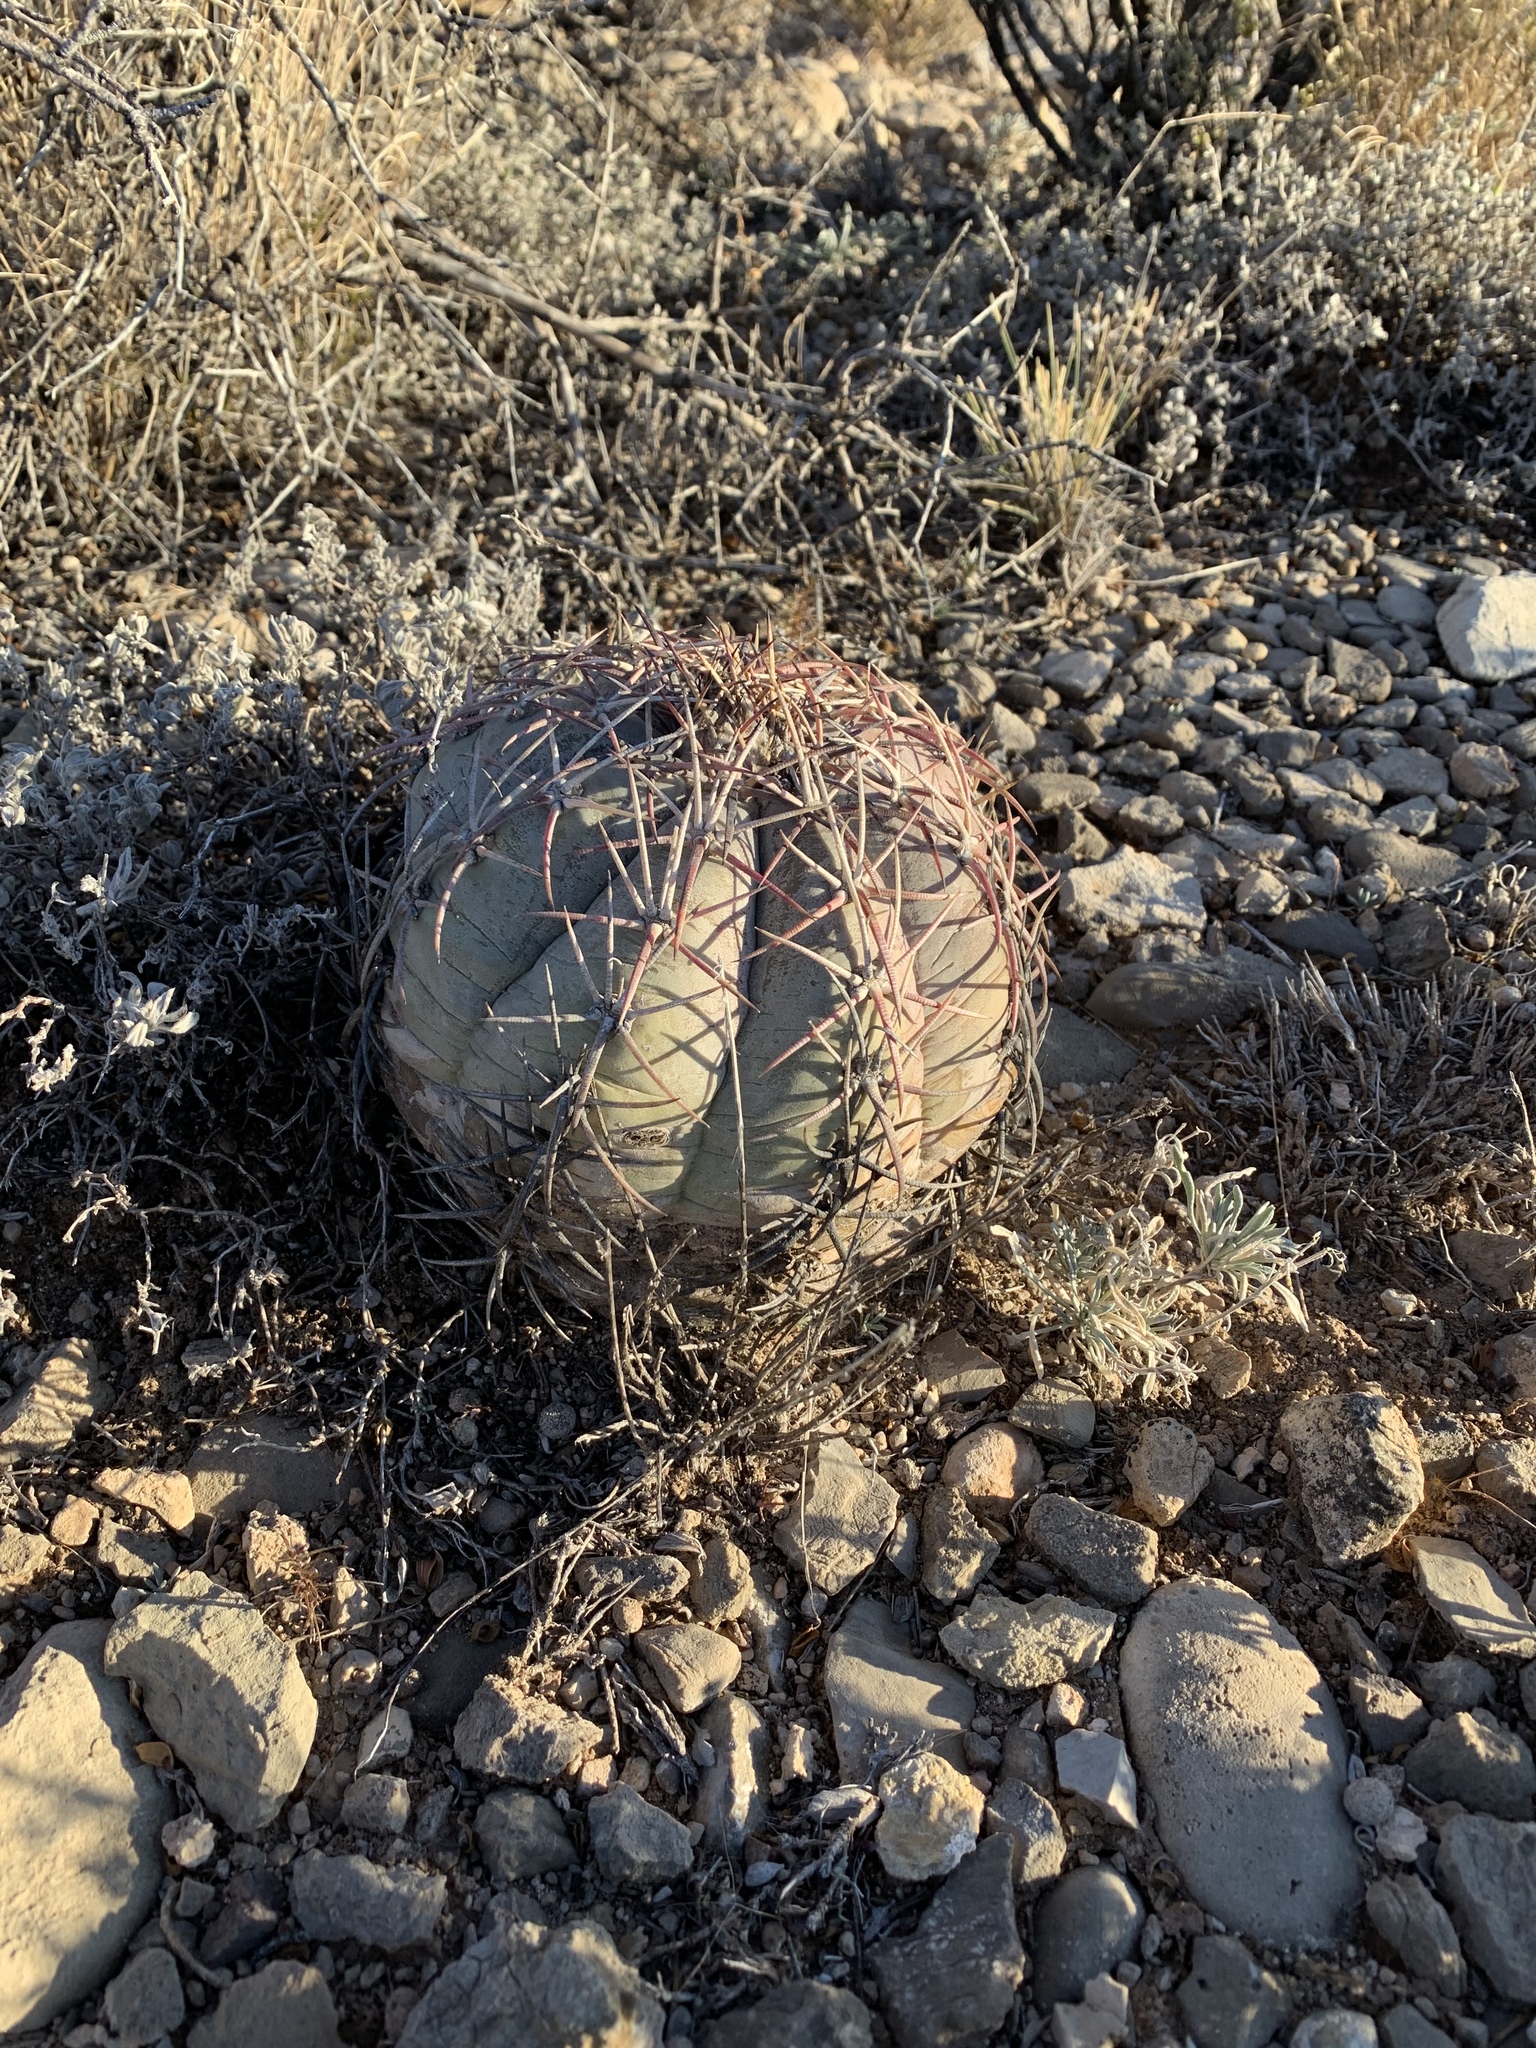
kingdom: Plantae
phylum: Tracheophyta
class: Magnoliopsida
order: Caryophyllales
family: Cactaceae
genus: Echinocactus
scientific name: Echinocactus horizonthalonius
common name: Devilshead
